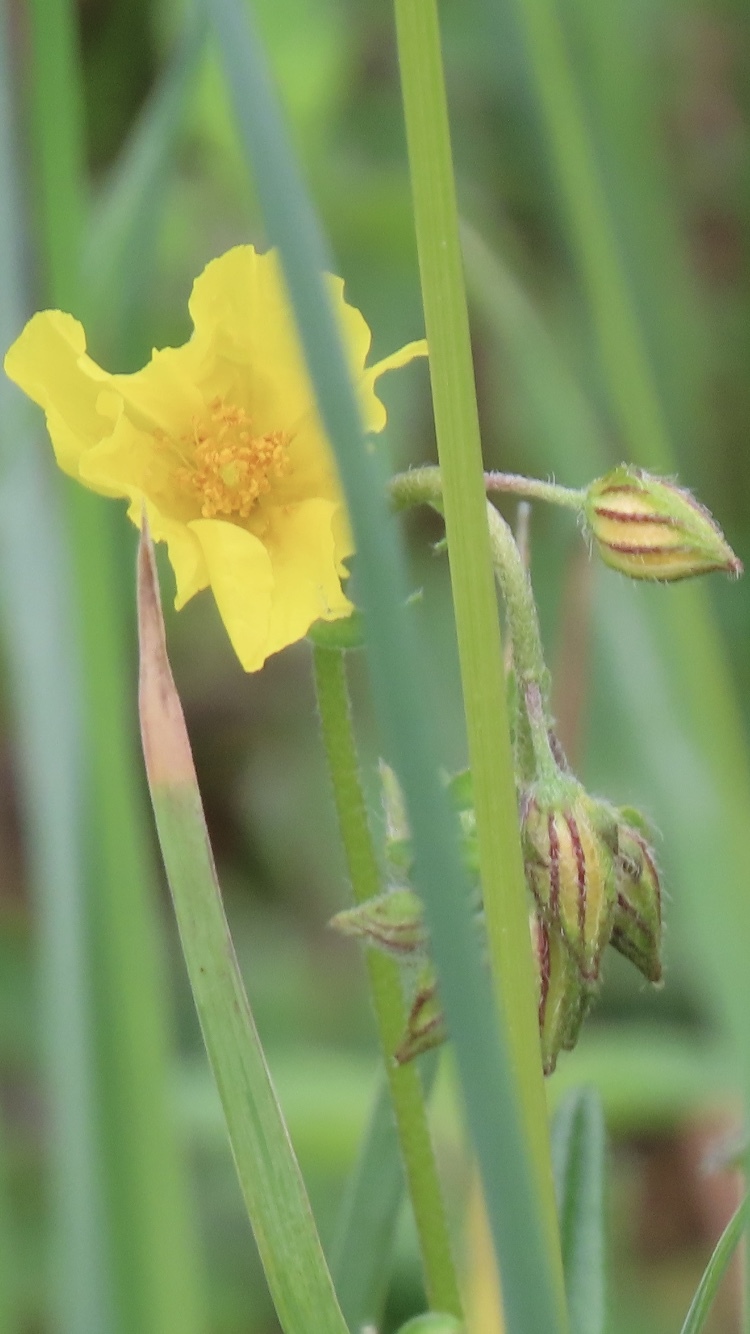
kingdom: Plantae
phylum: Tracheophyta
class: Magnoliopsida
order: Malvales
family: Cistaceae
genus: Helianthemum
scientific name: Helianthemum nummularium
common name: Common rock-rose
